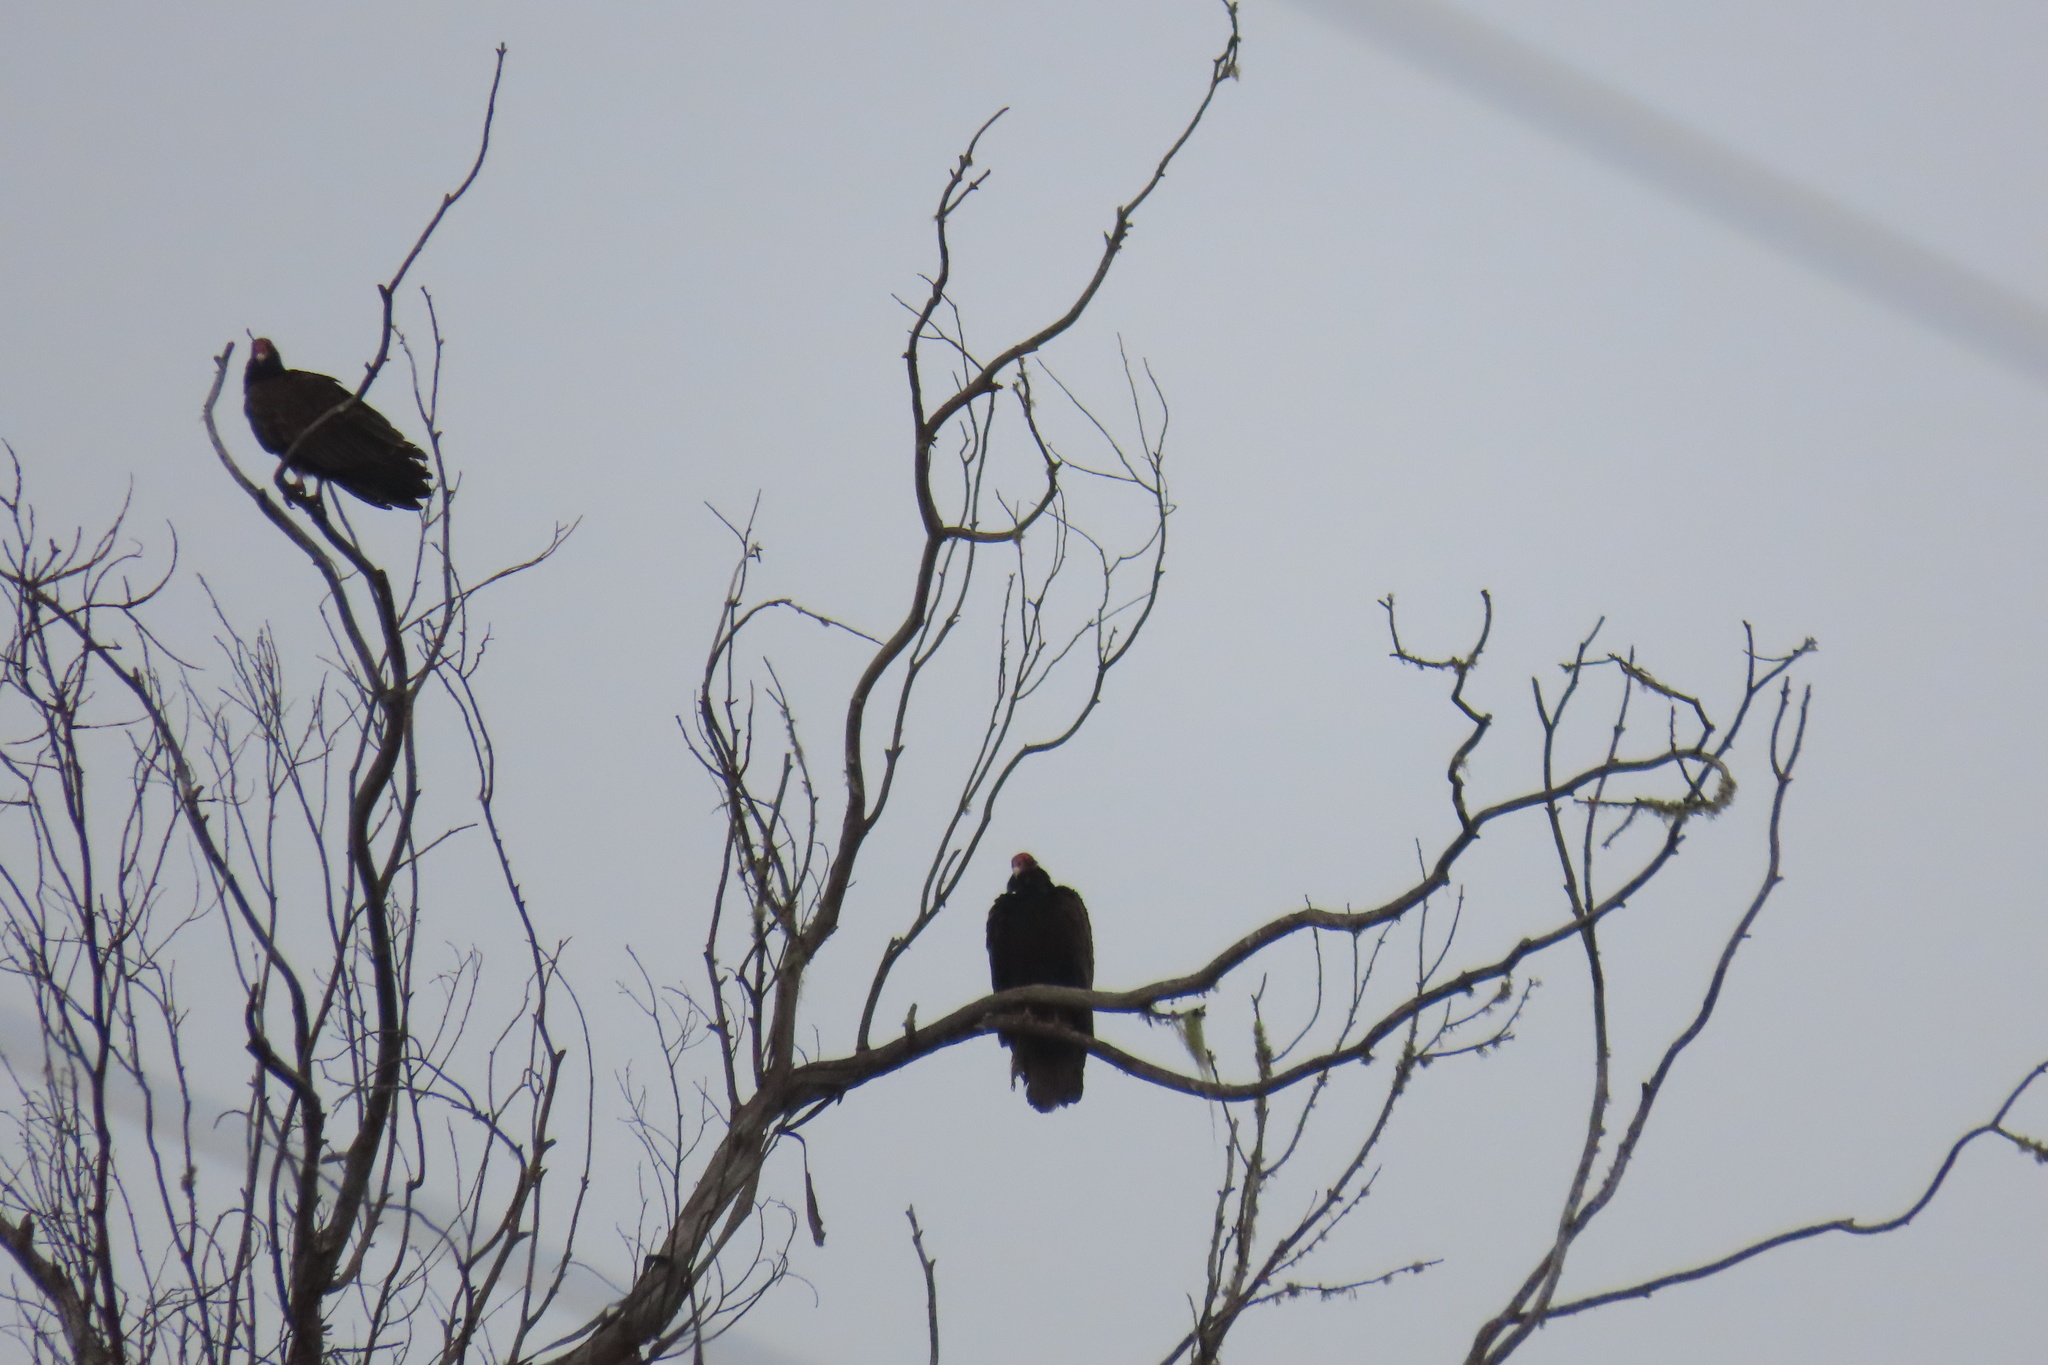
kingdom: Animalia
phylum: Chordata
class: Aves
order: Accipitriformes
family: Accipitridae
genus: Buteo
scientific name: Buteo jamaicensis
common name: Red-tailed hawk
